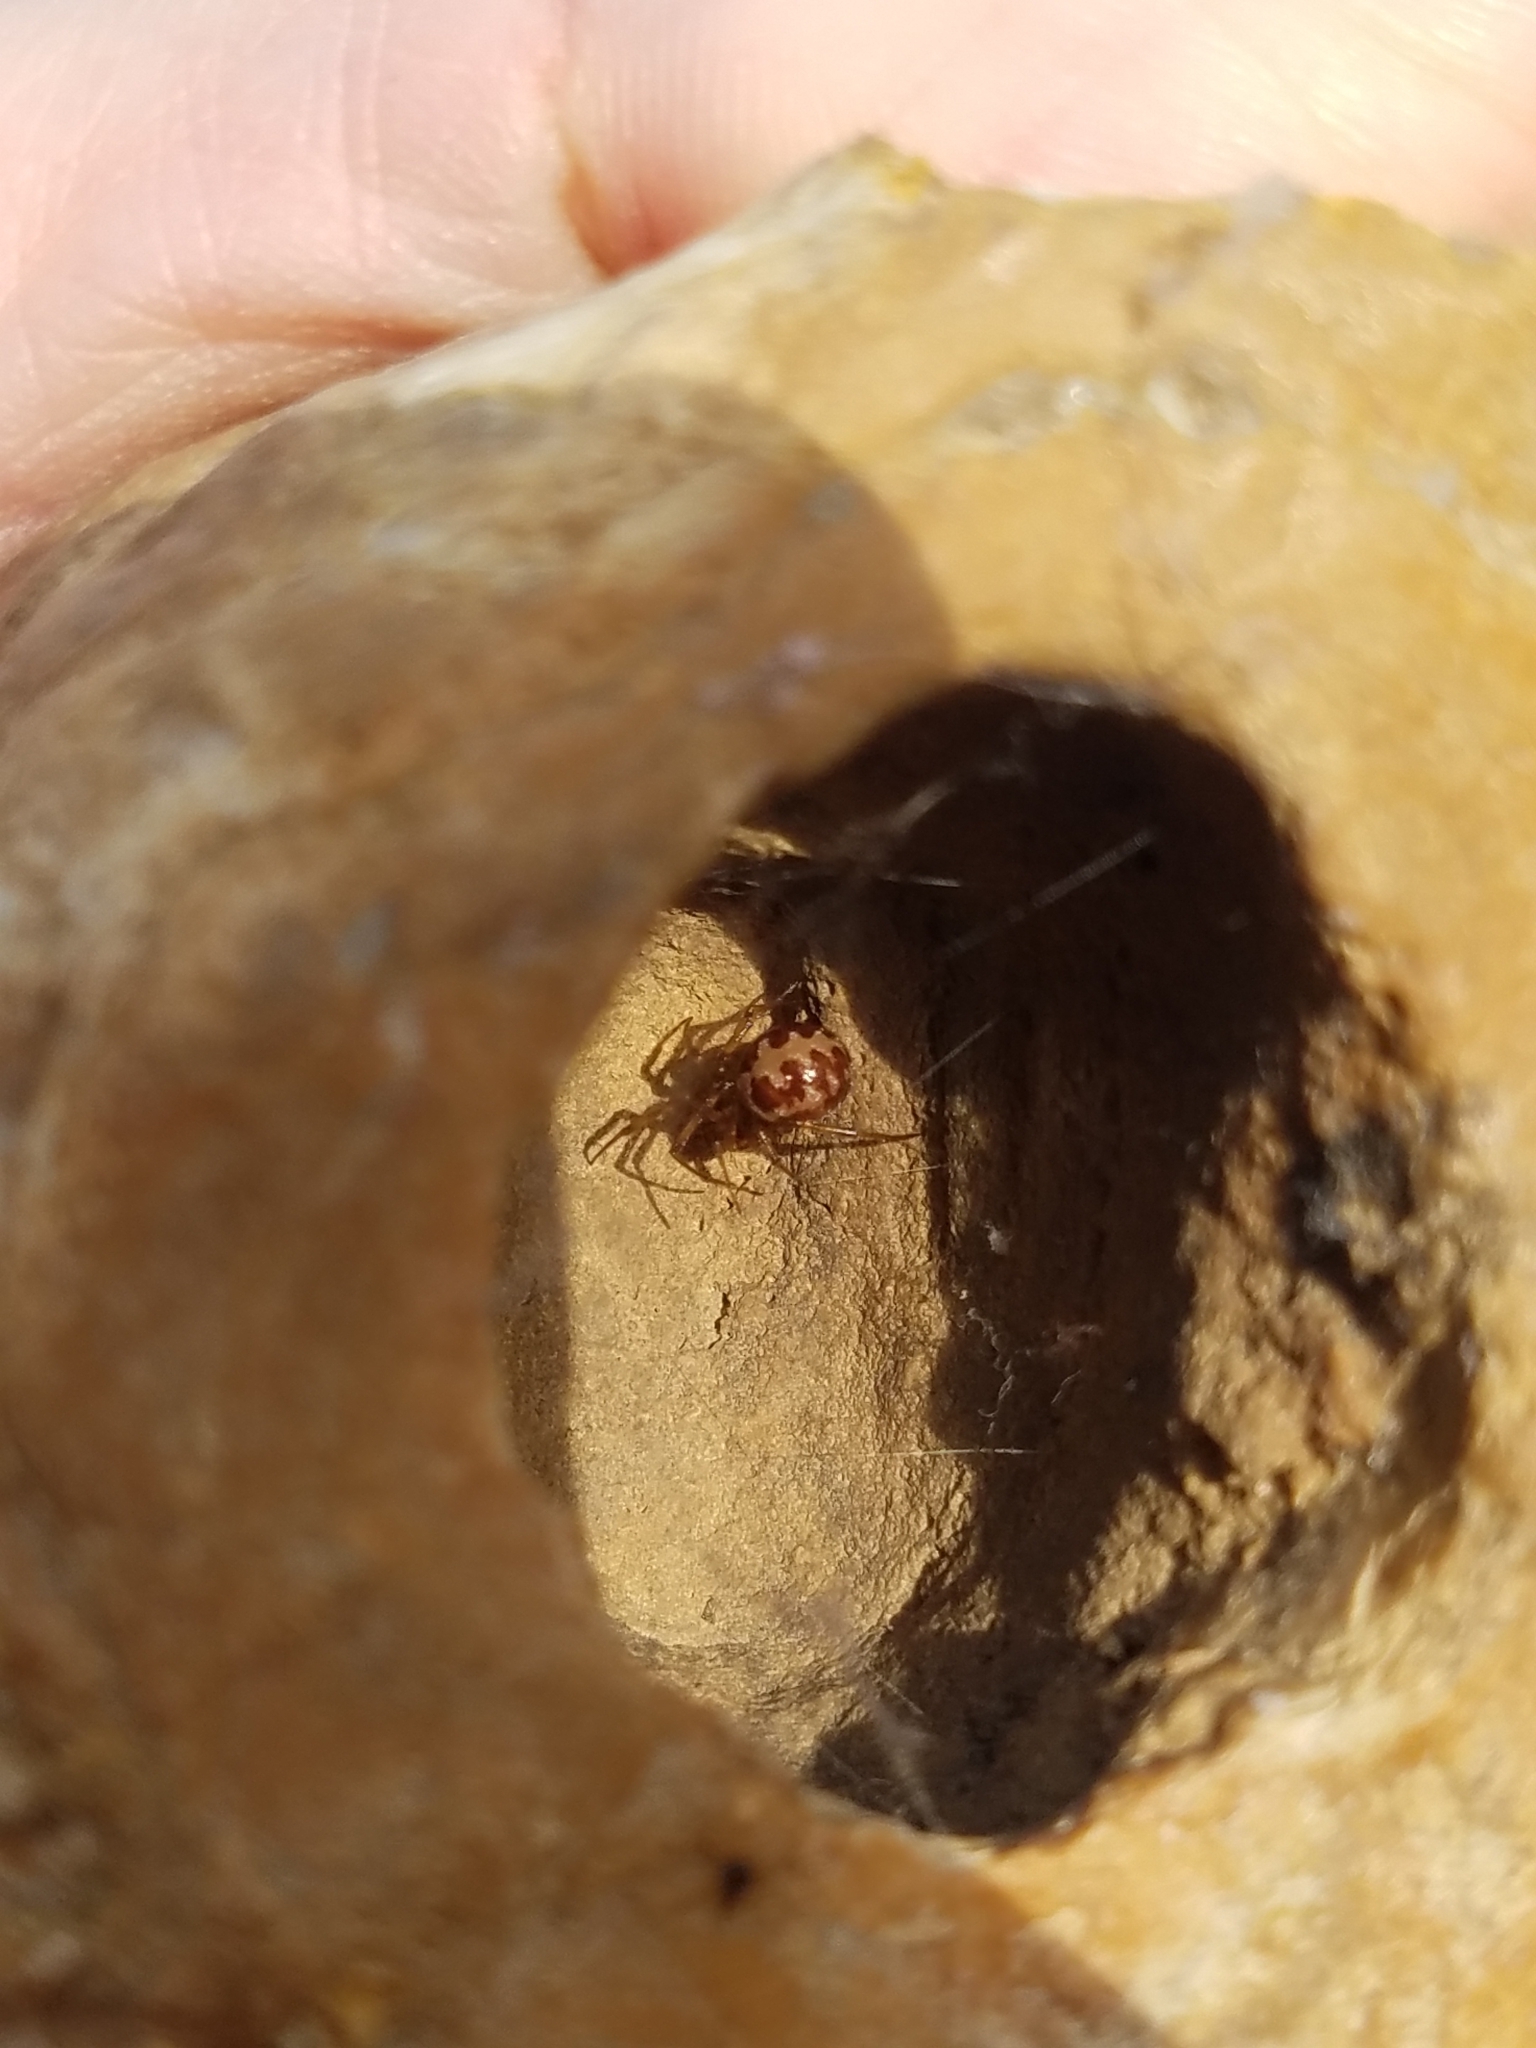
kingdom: Animalia
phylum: Arthropoda
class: Arachnida
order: Araneae
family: Theridiidae
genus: Steatoda
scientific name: Steatoda triangulosa
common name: Triangulate bud spider
